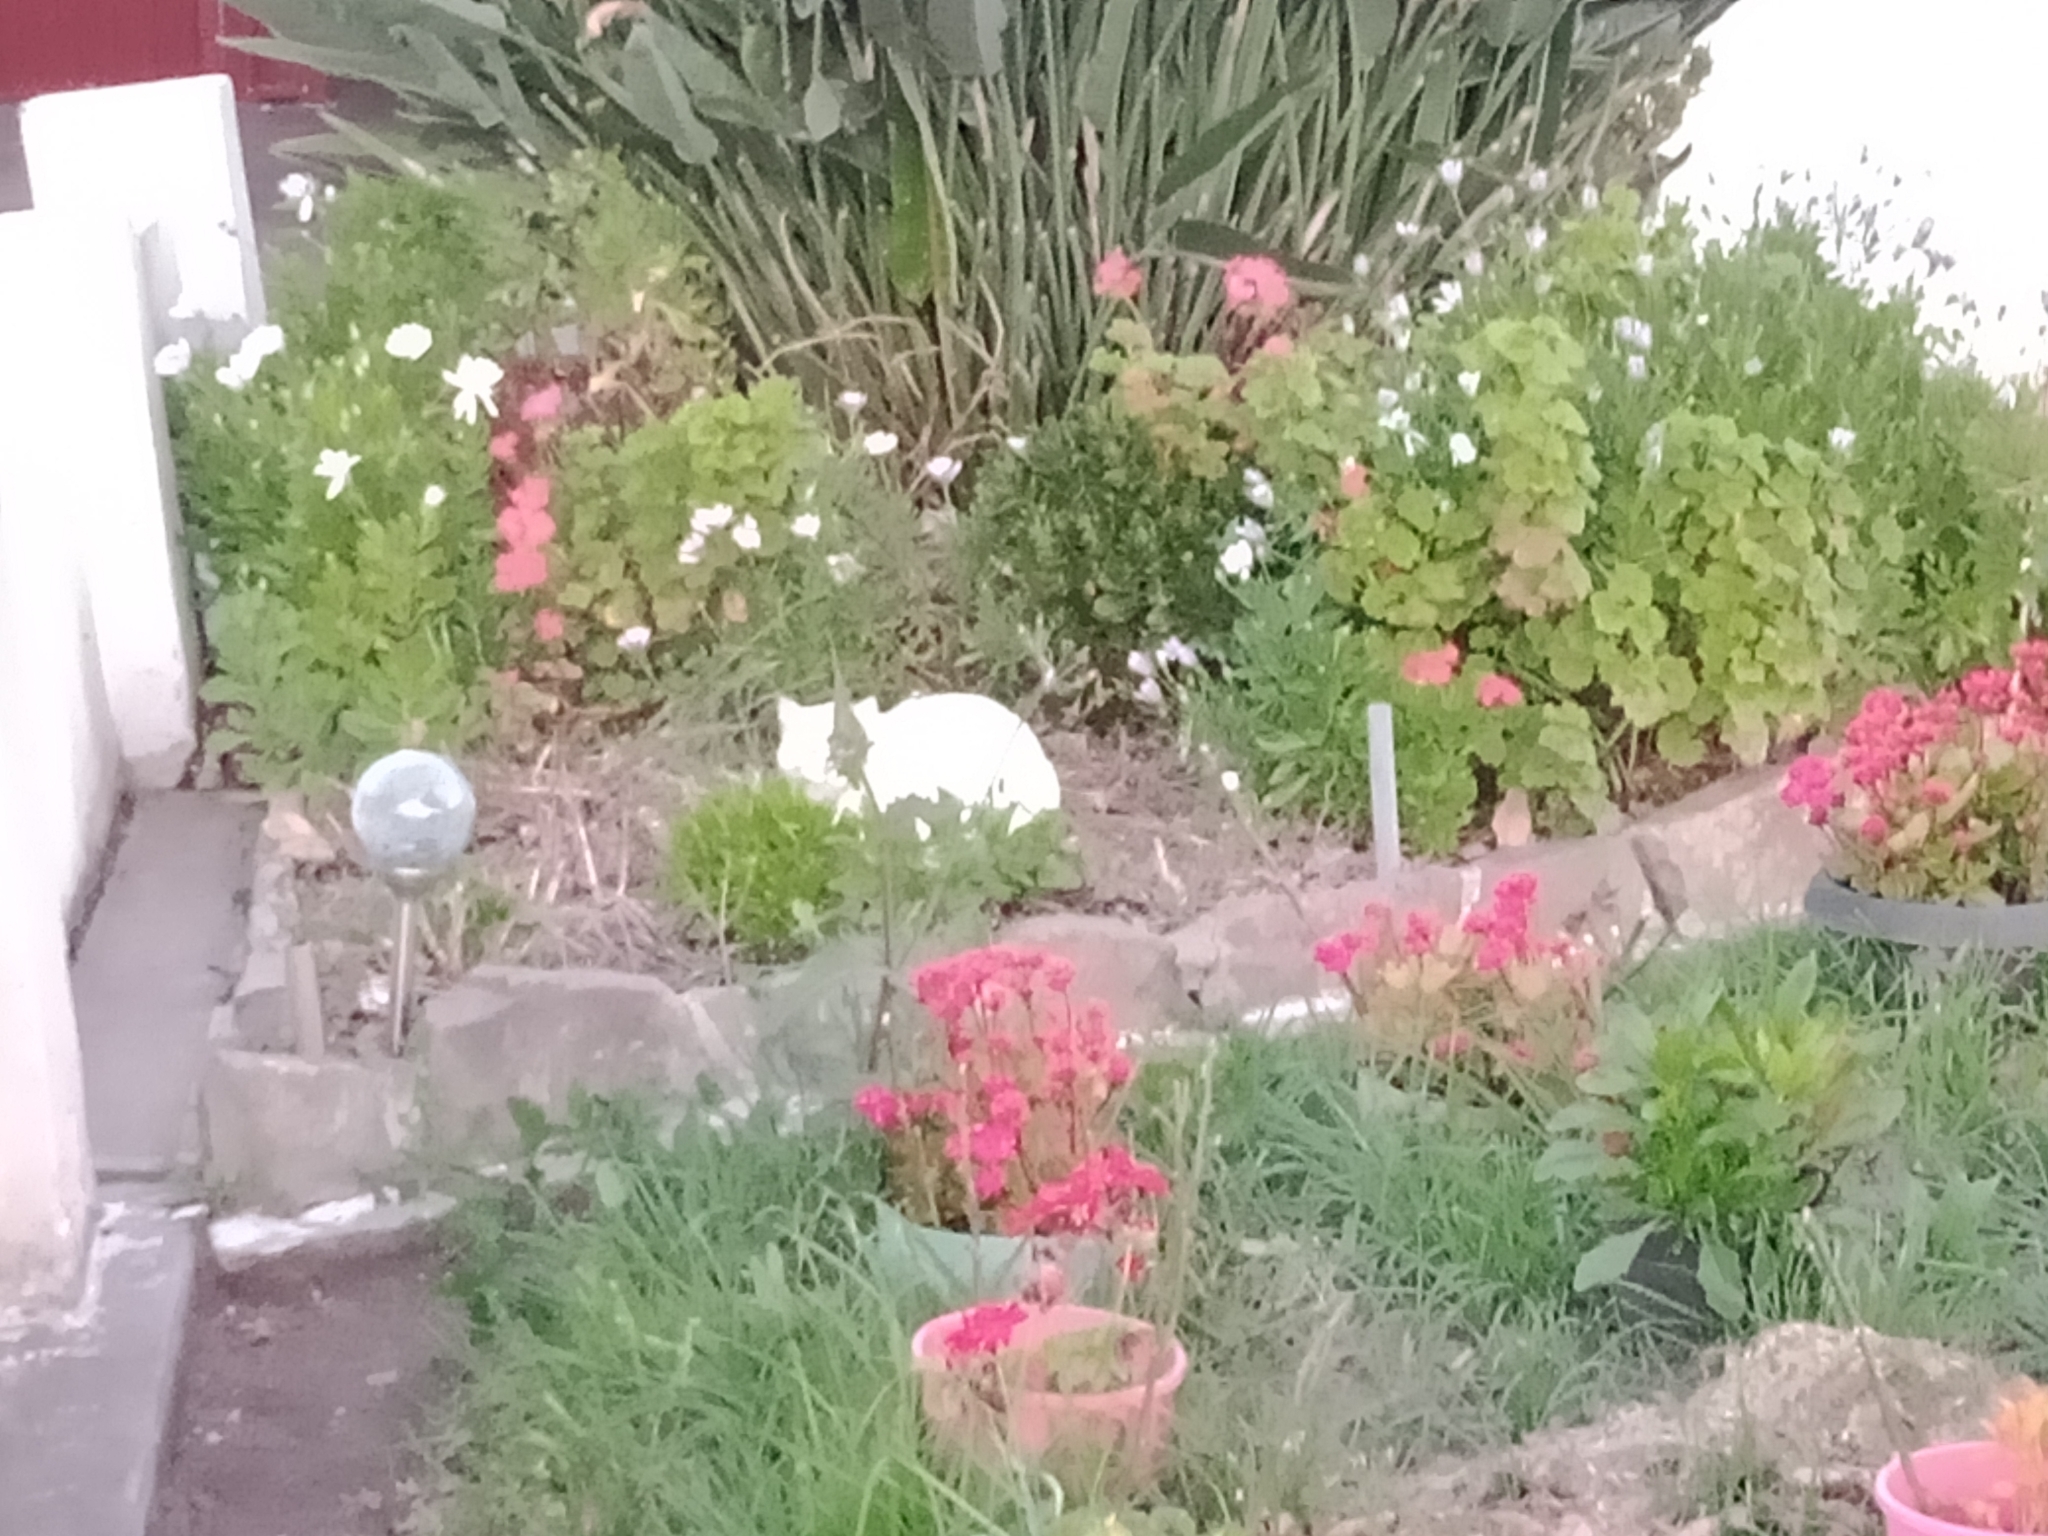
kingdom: Animalia
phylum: Chordata
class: Mammalia
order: Carnivora
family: Felidae
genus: Felis
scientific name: Felis catus
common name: Domestic cat
